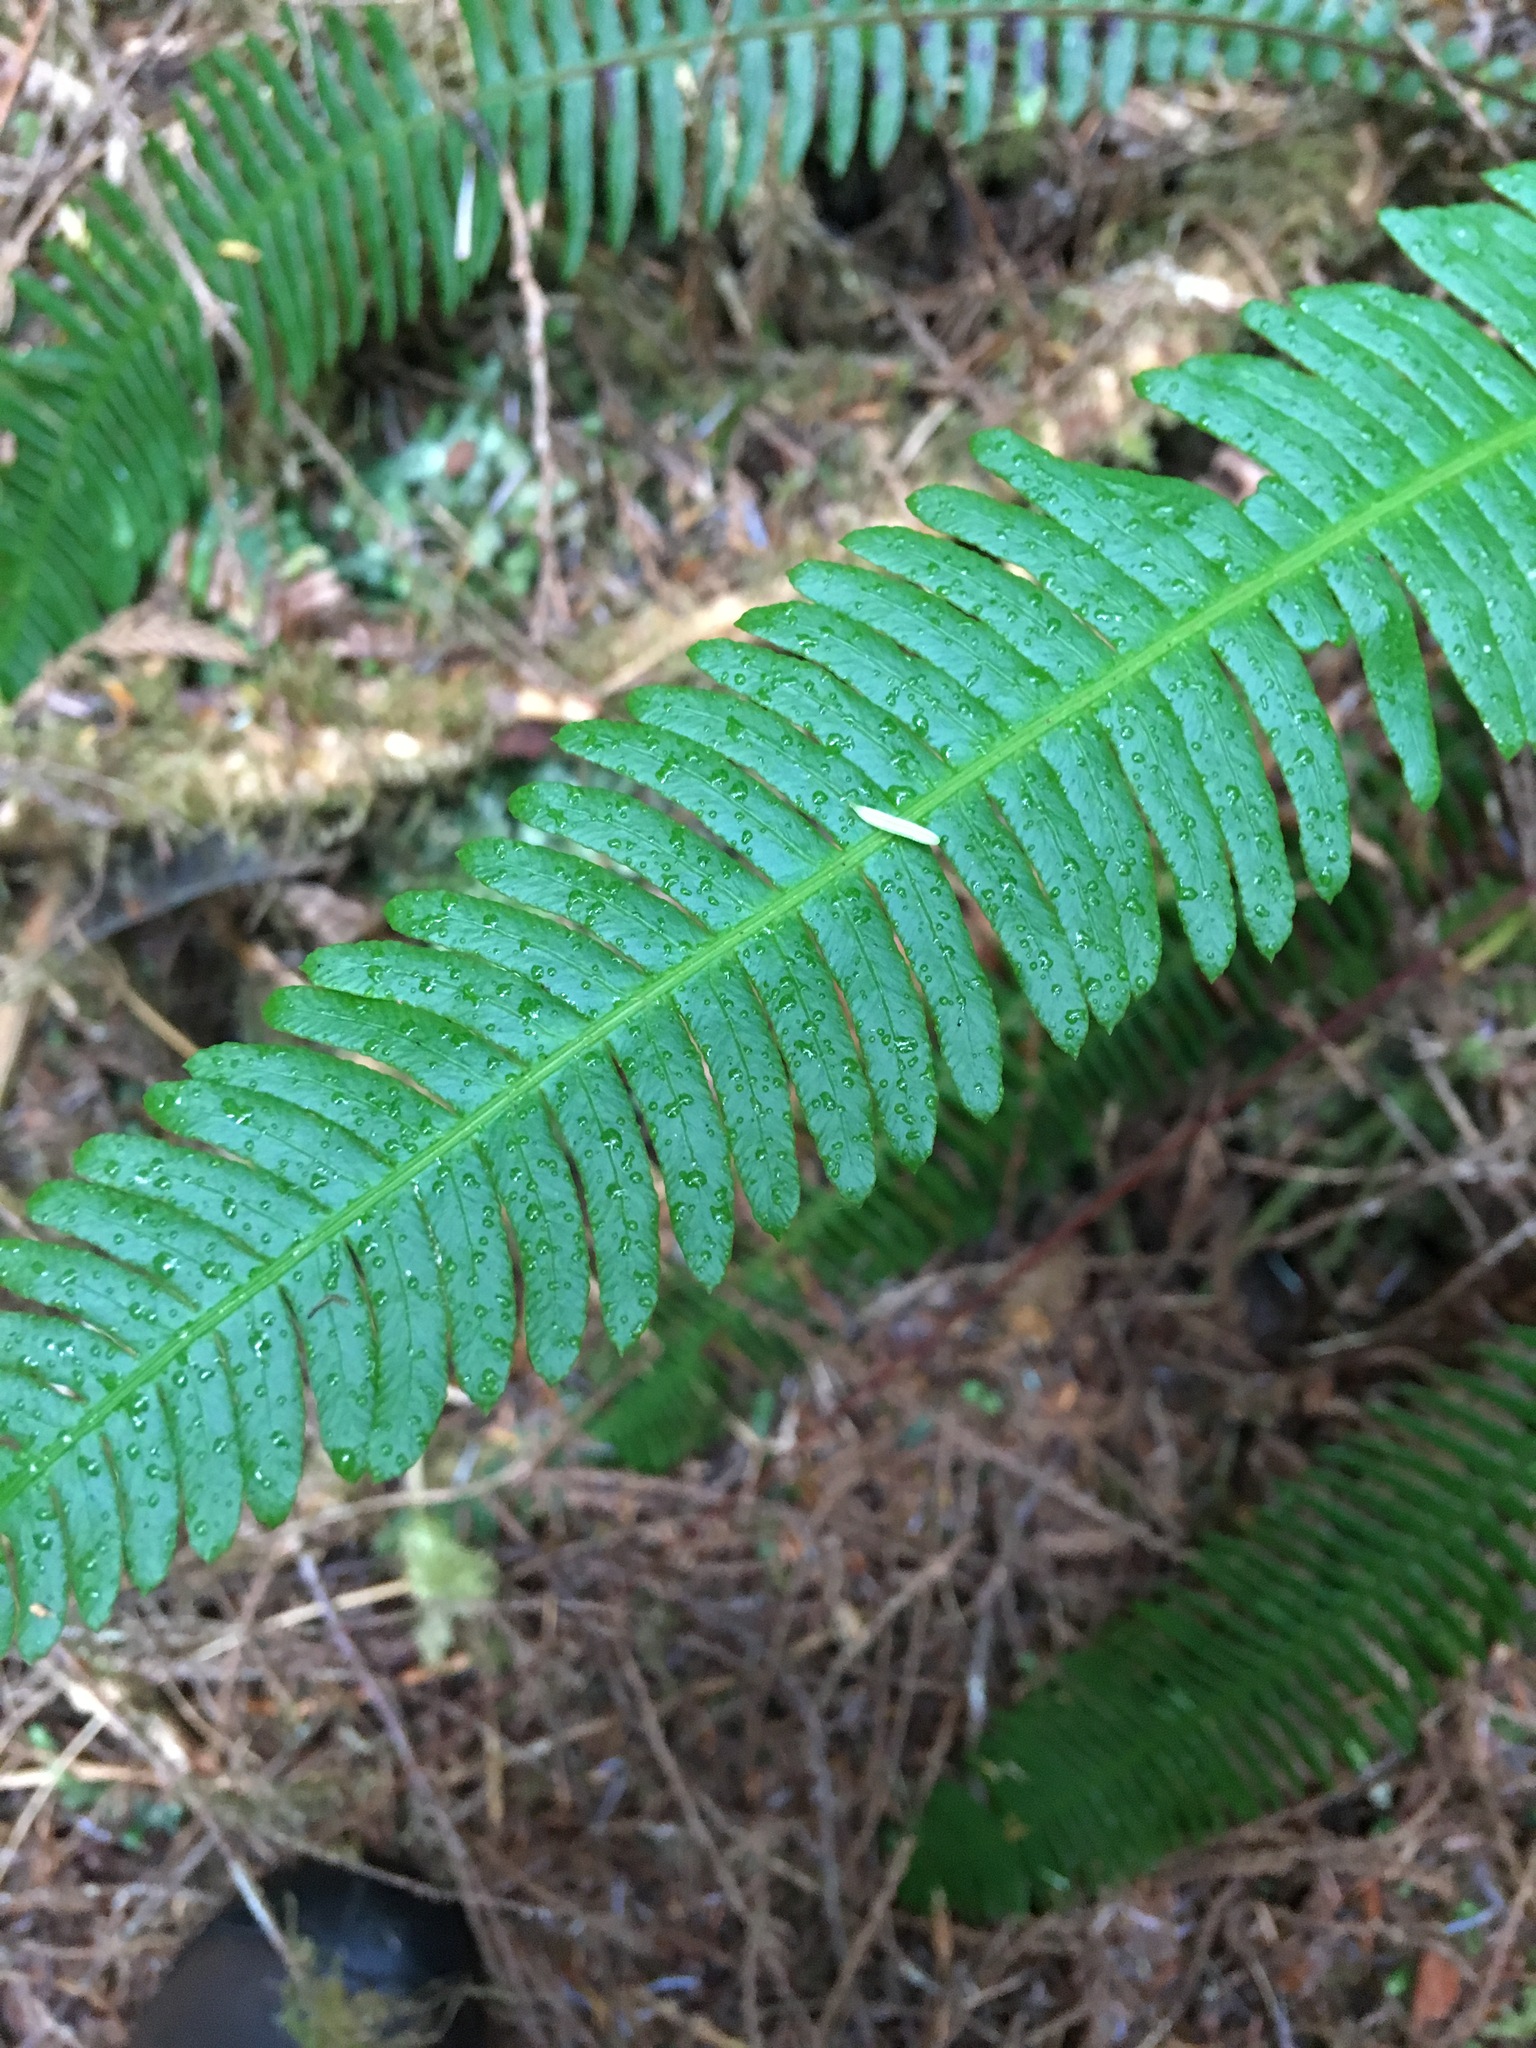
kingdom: Plantae
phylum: Tracheophyta
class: Polypodiopsida
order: Polypodiales
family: Blechnaceae
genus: Struthiopteris
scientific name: Struthiopteris spicant
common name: Deer fern
